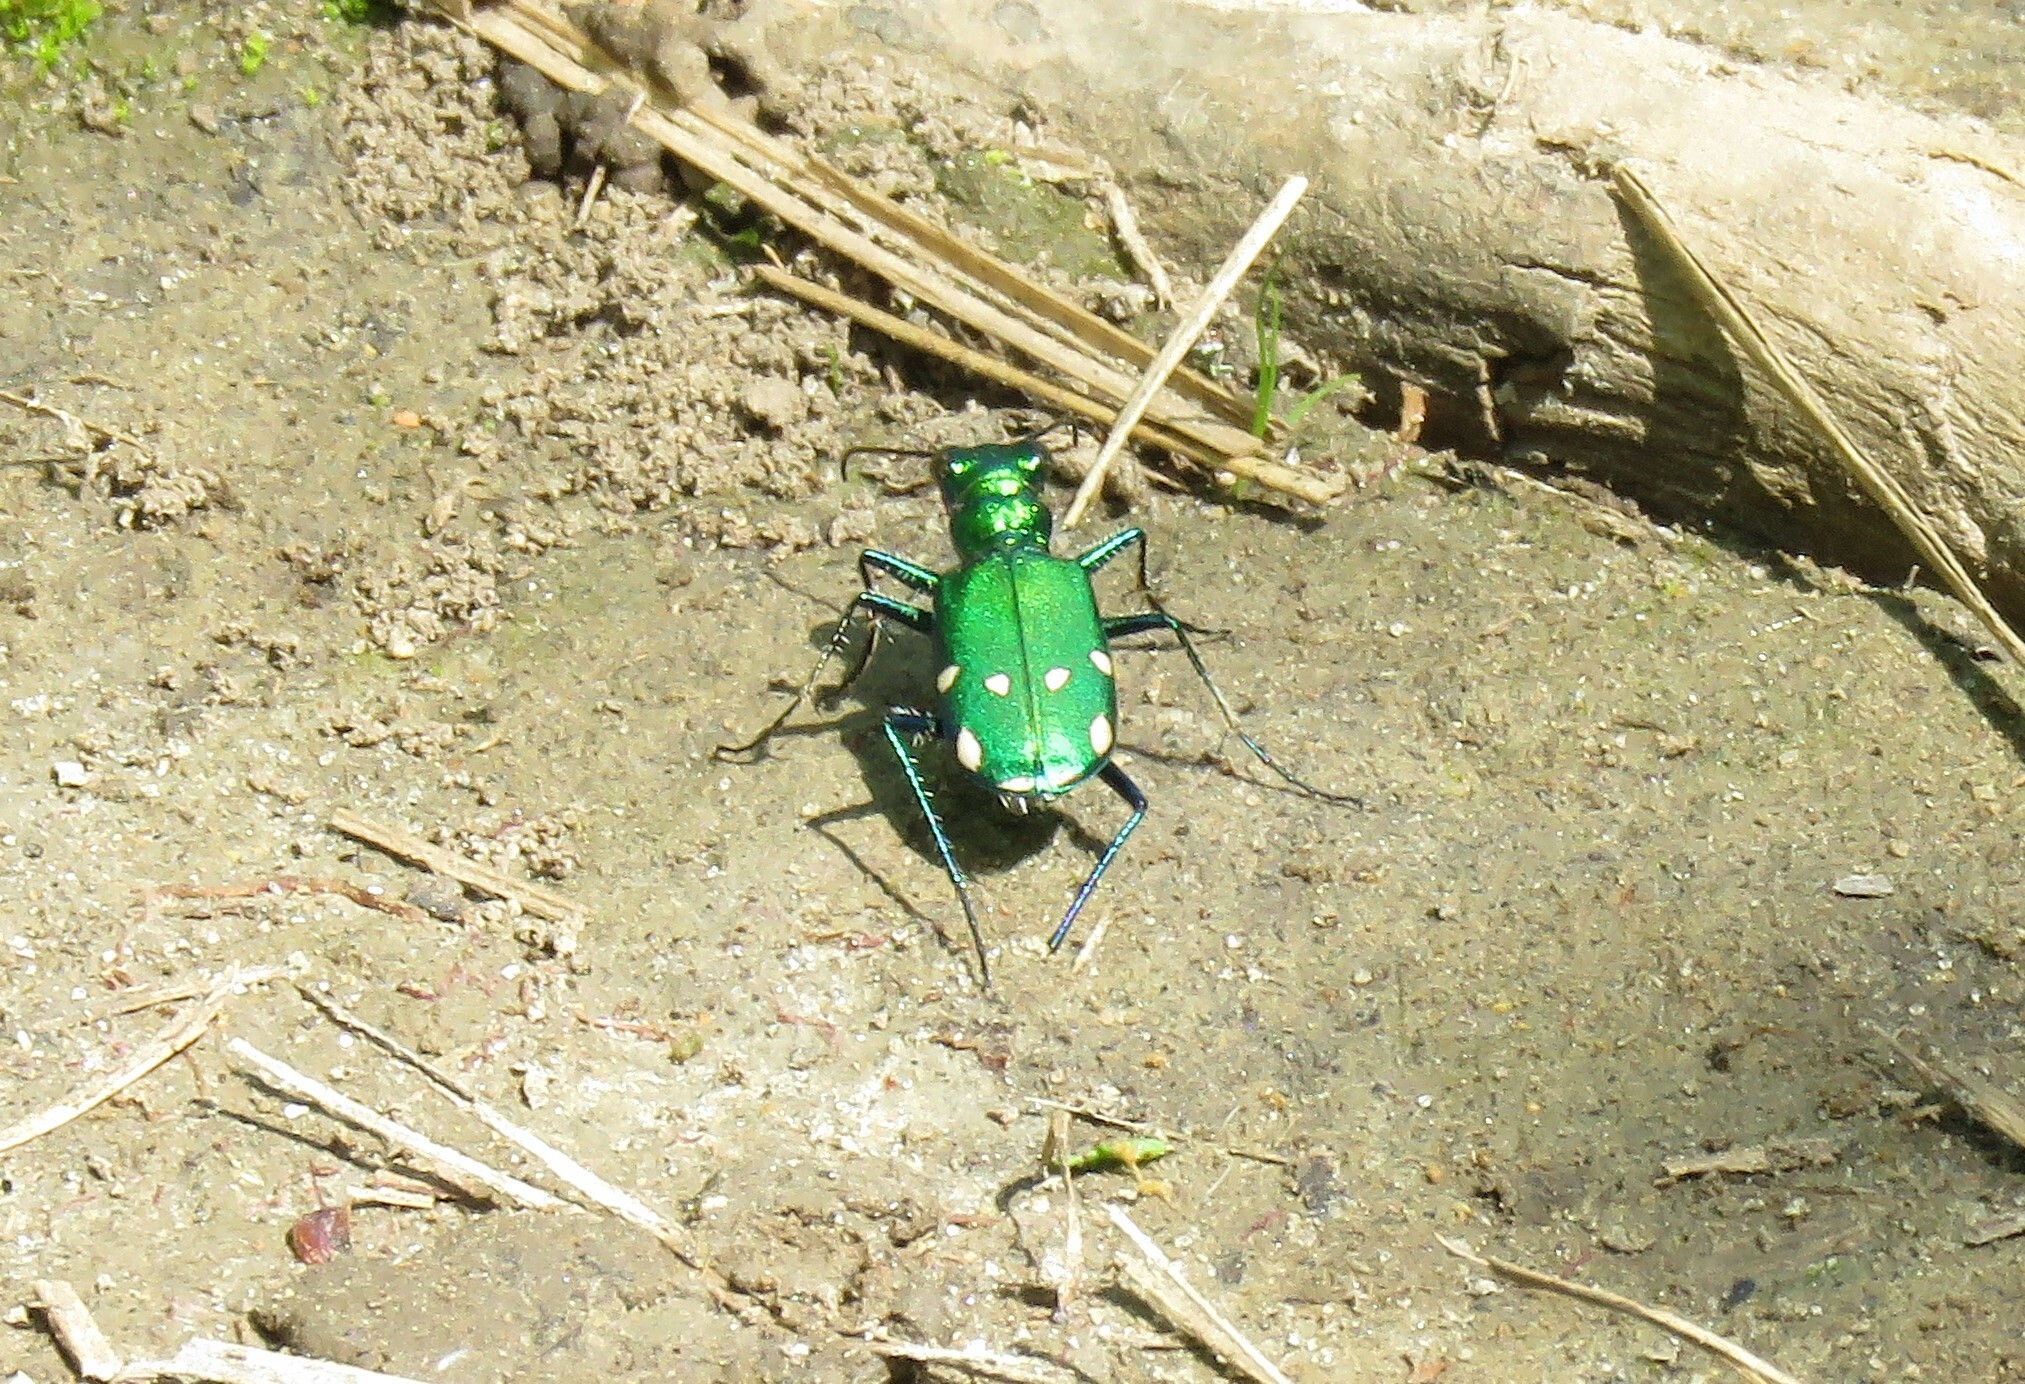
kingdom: Animalia
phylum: Arthropoda
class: Insecta
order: Coleoptera
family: Carabidae
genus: Cicindela
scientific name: Cicindela sexguttata
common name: Six-spotted tiger beetle
